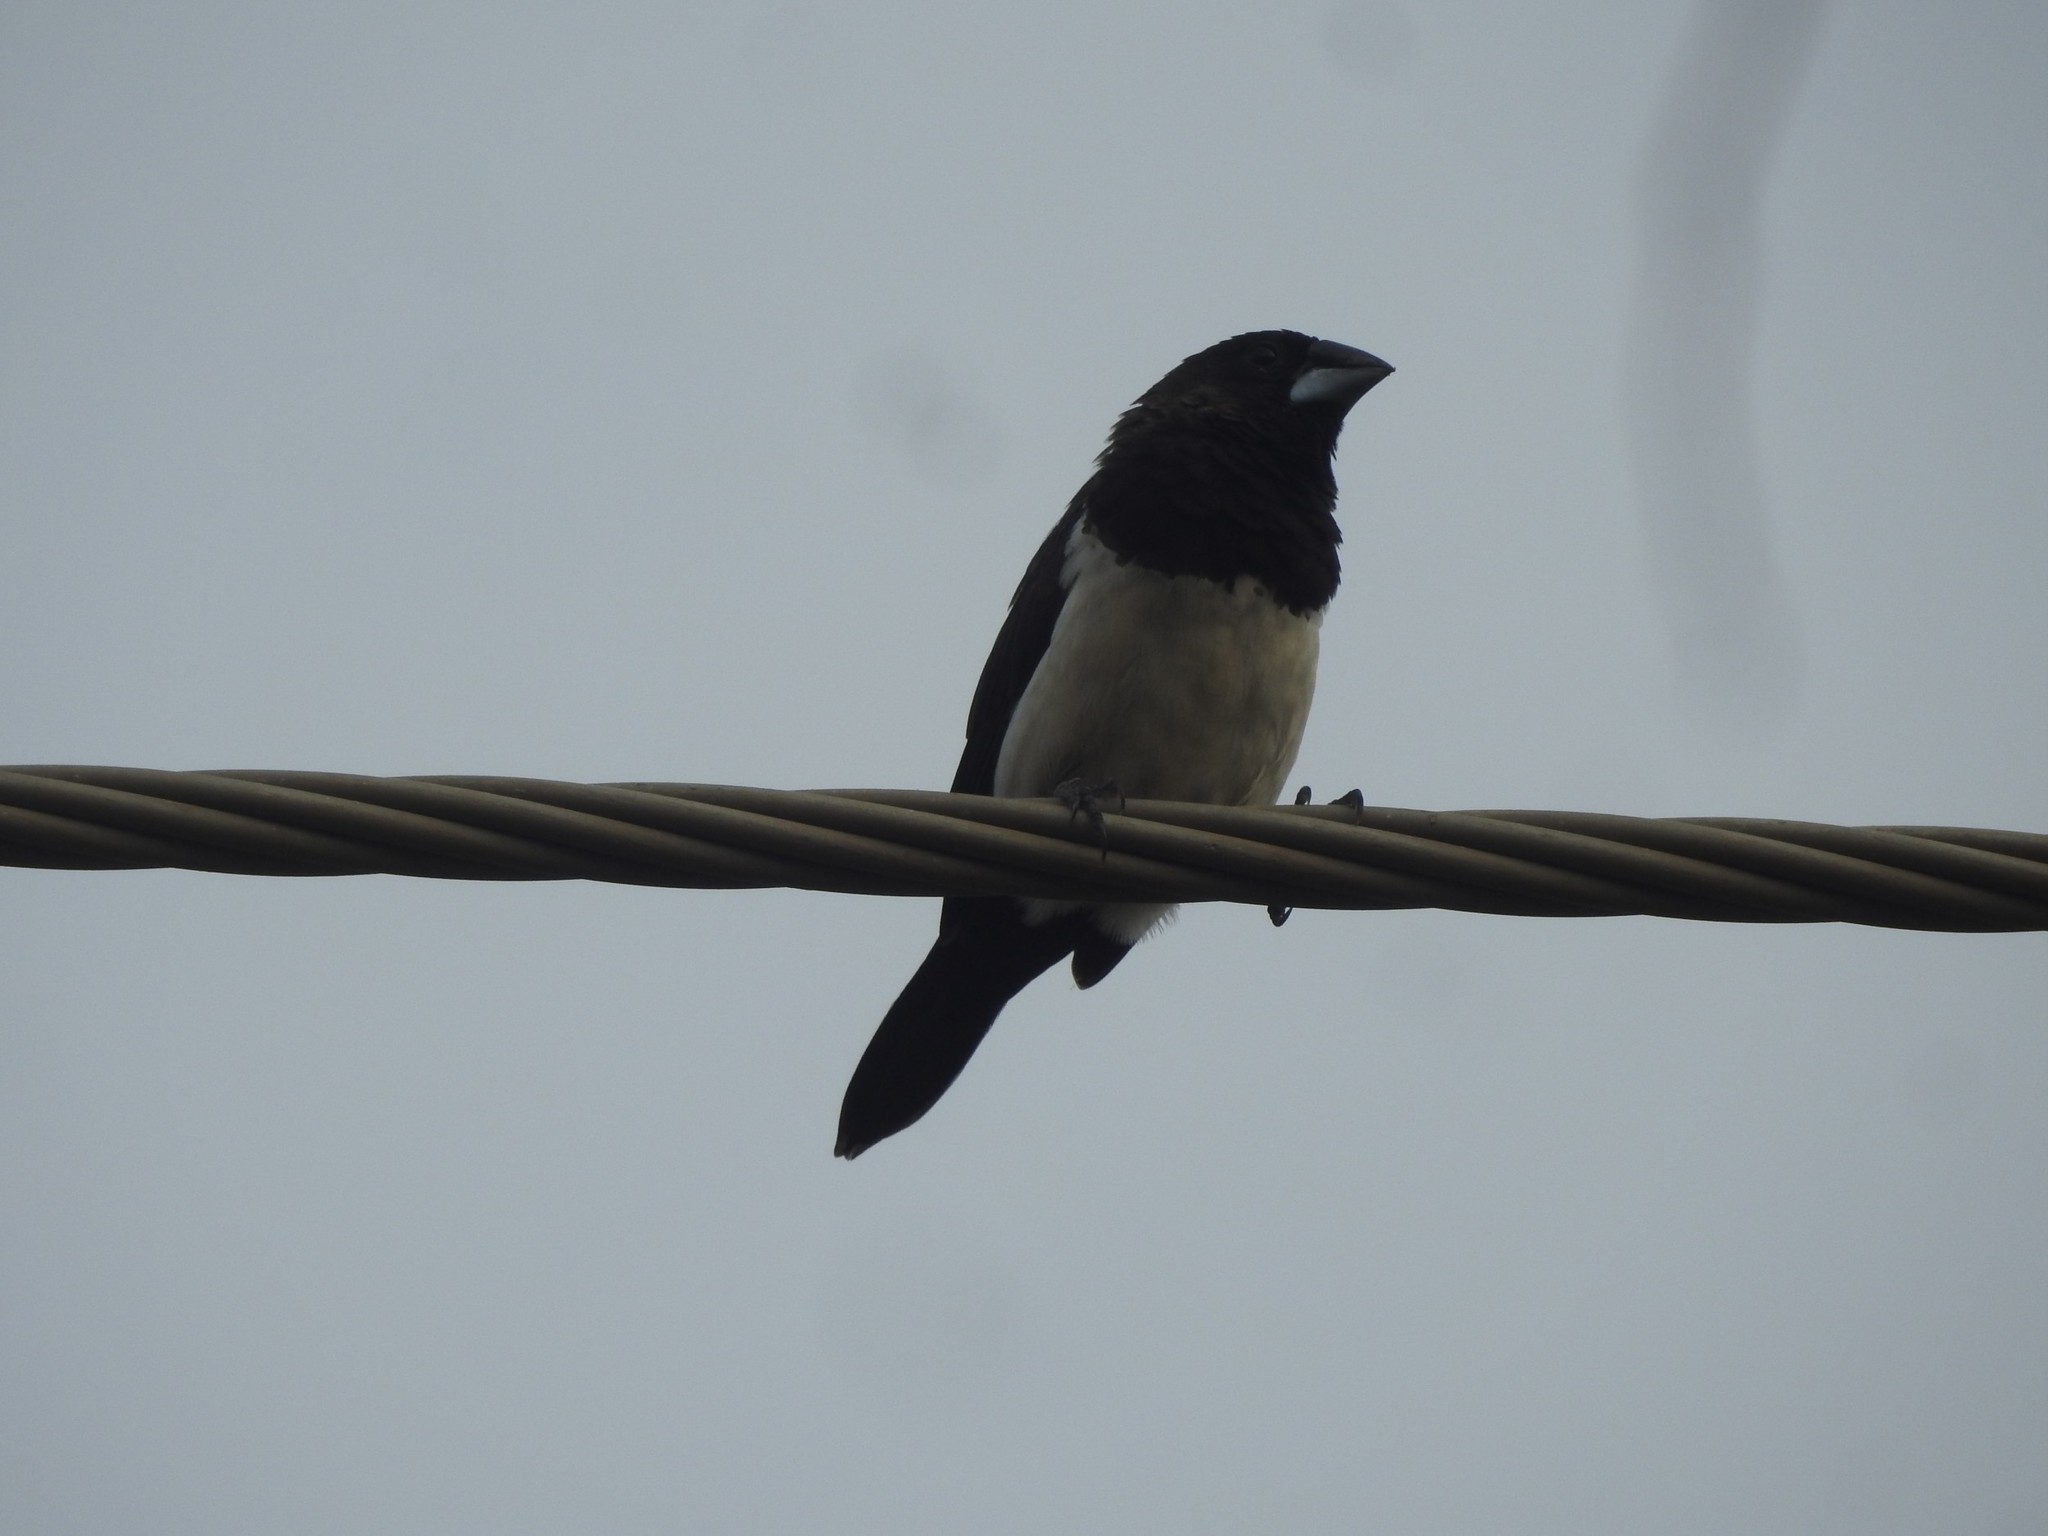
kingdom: Animalia
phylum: Chordata
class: Aves
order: Passeriformes
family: Estrildidae
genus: Lonchura
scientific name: Lonchura striata
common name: White-rumped munia
